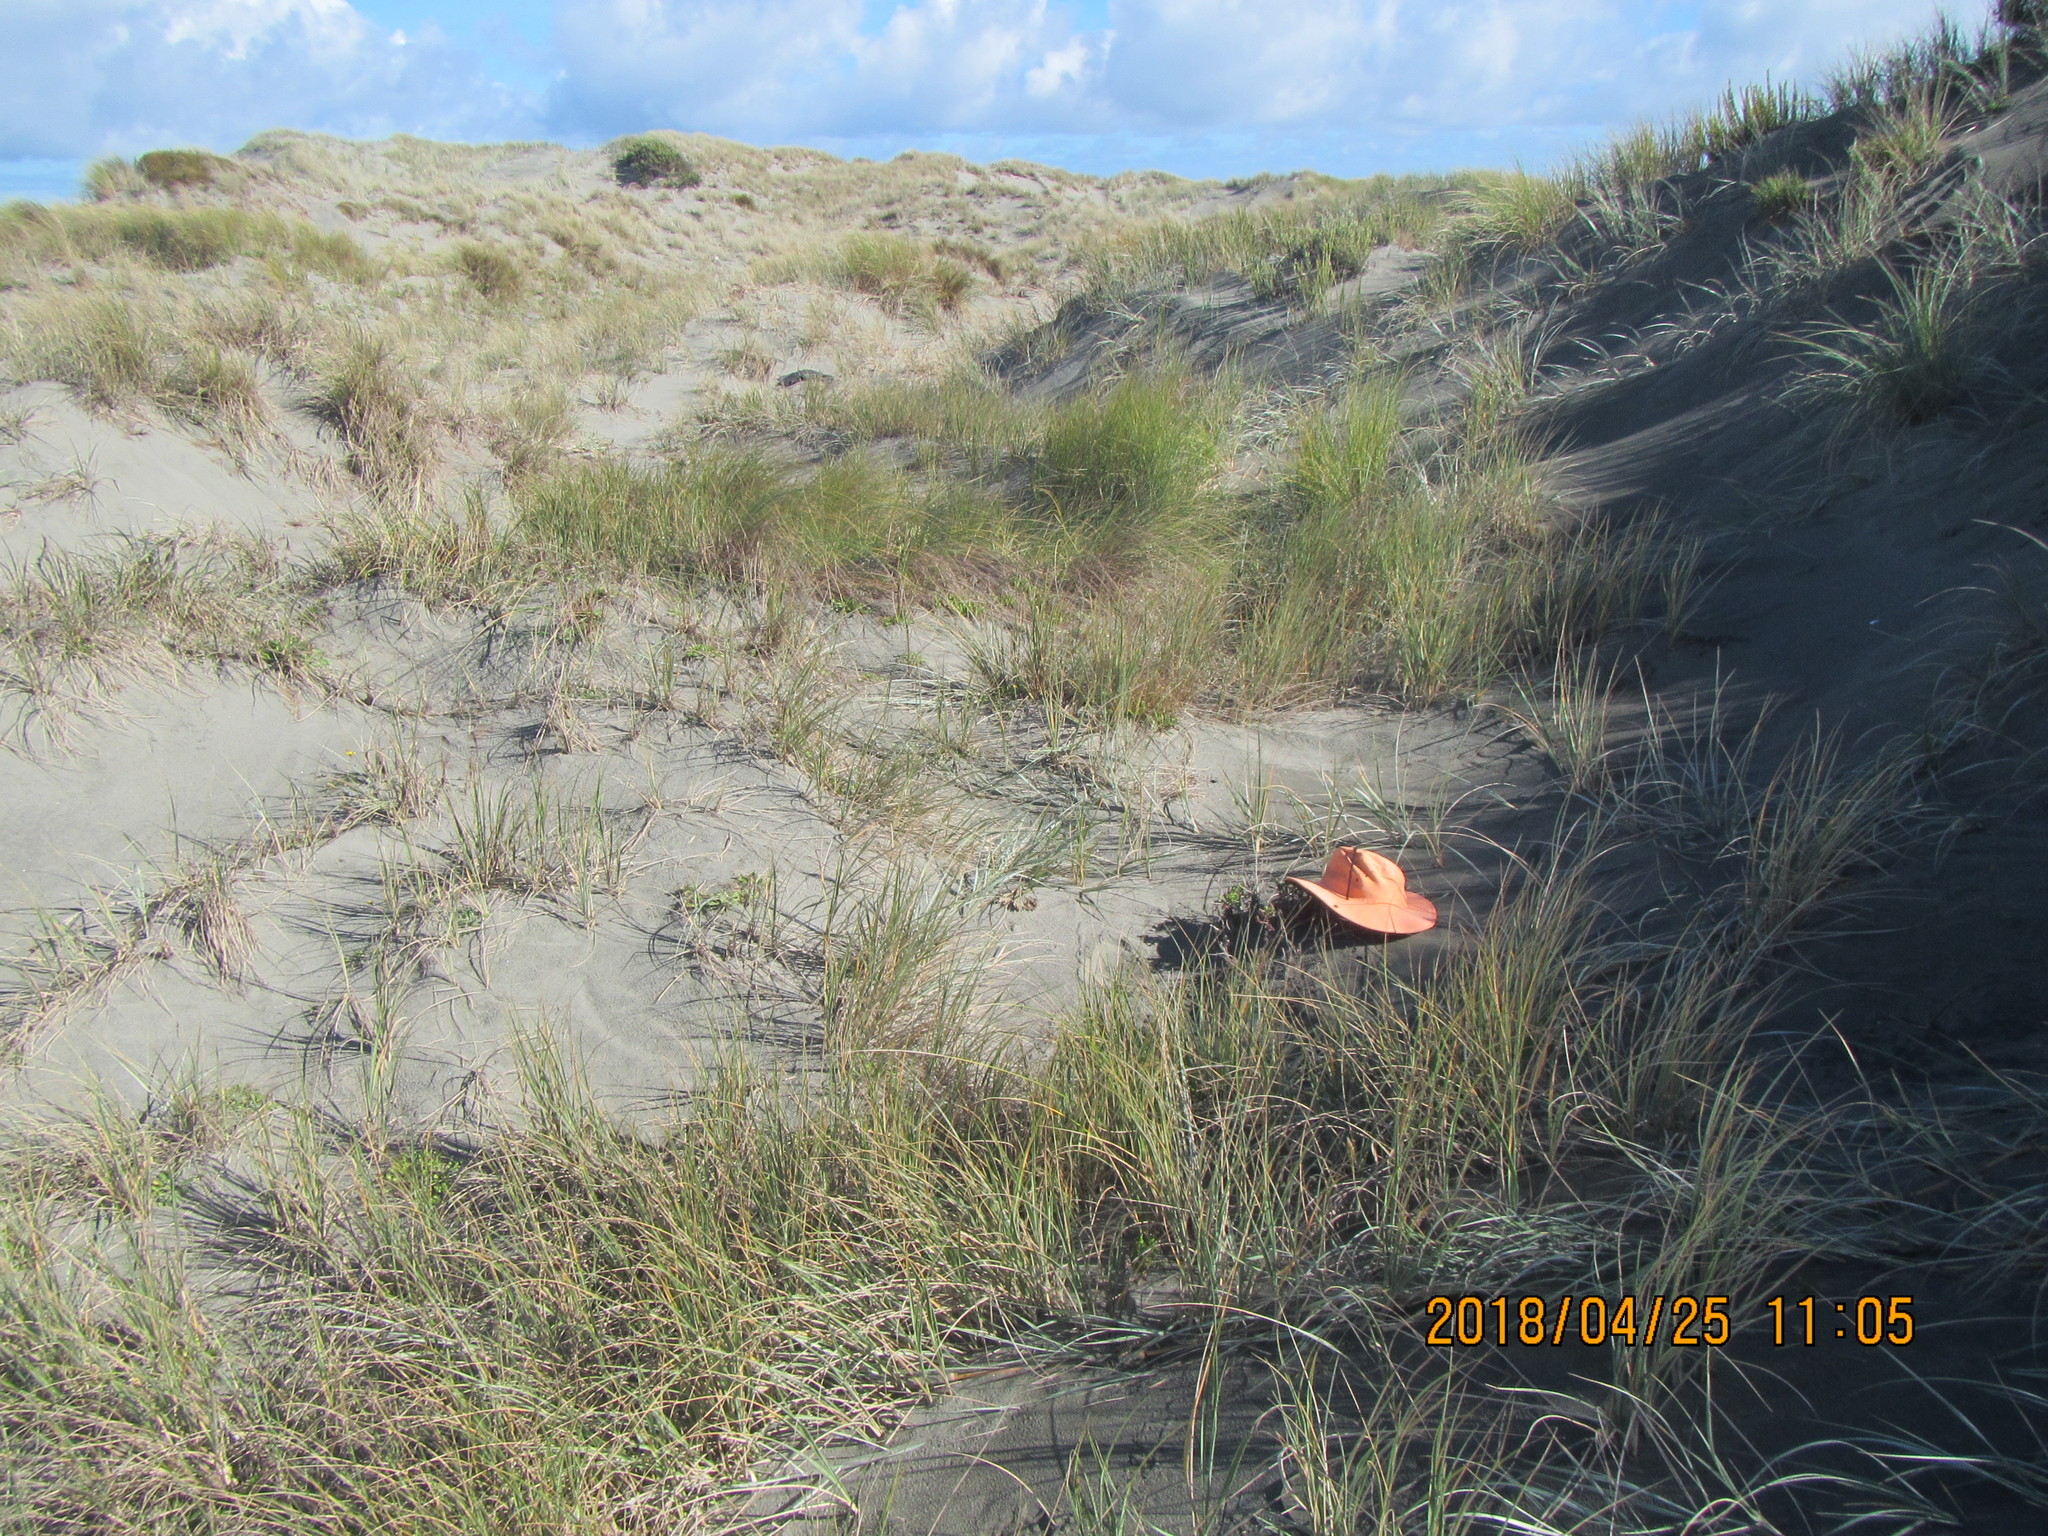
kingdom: Plantae
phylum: Tracheophyta
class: Magnoliopsida
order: Asterales
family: Asteraceae
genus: Senecio
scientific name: Senecio elegans
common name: Purple groundsel
